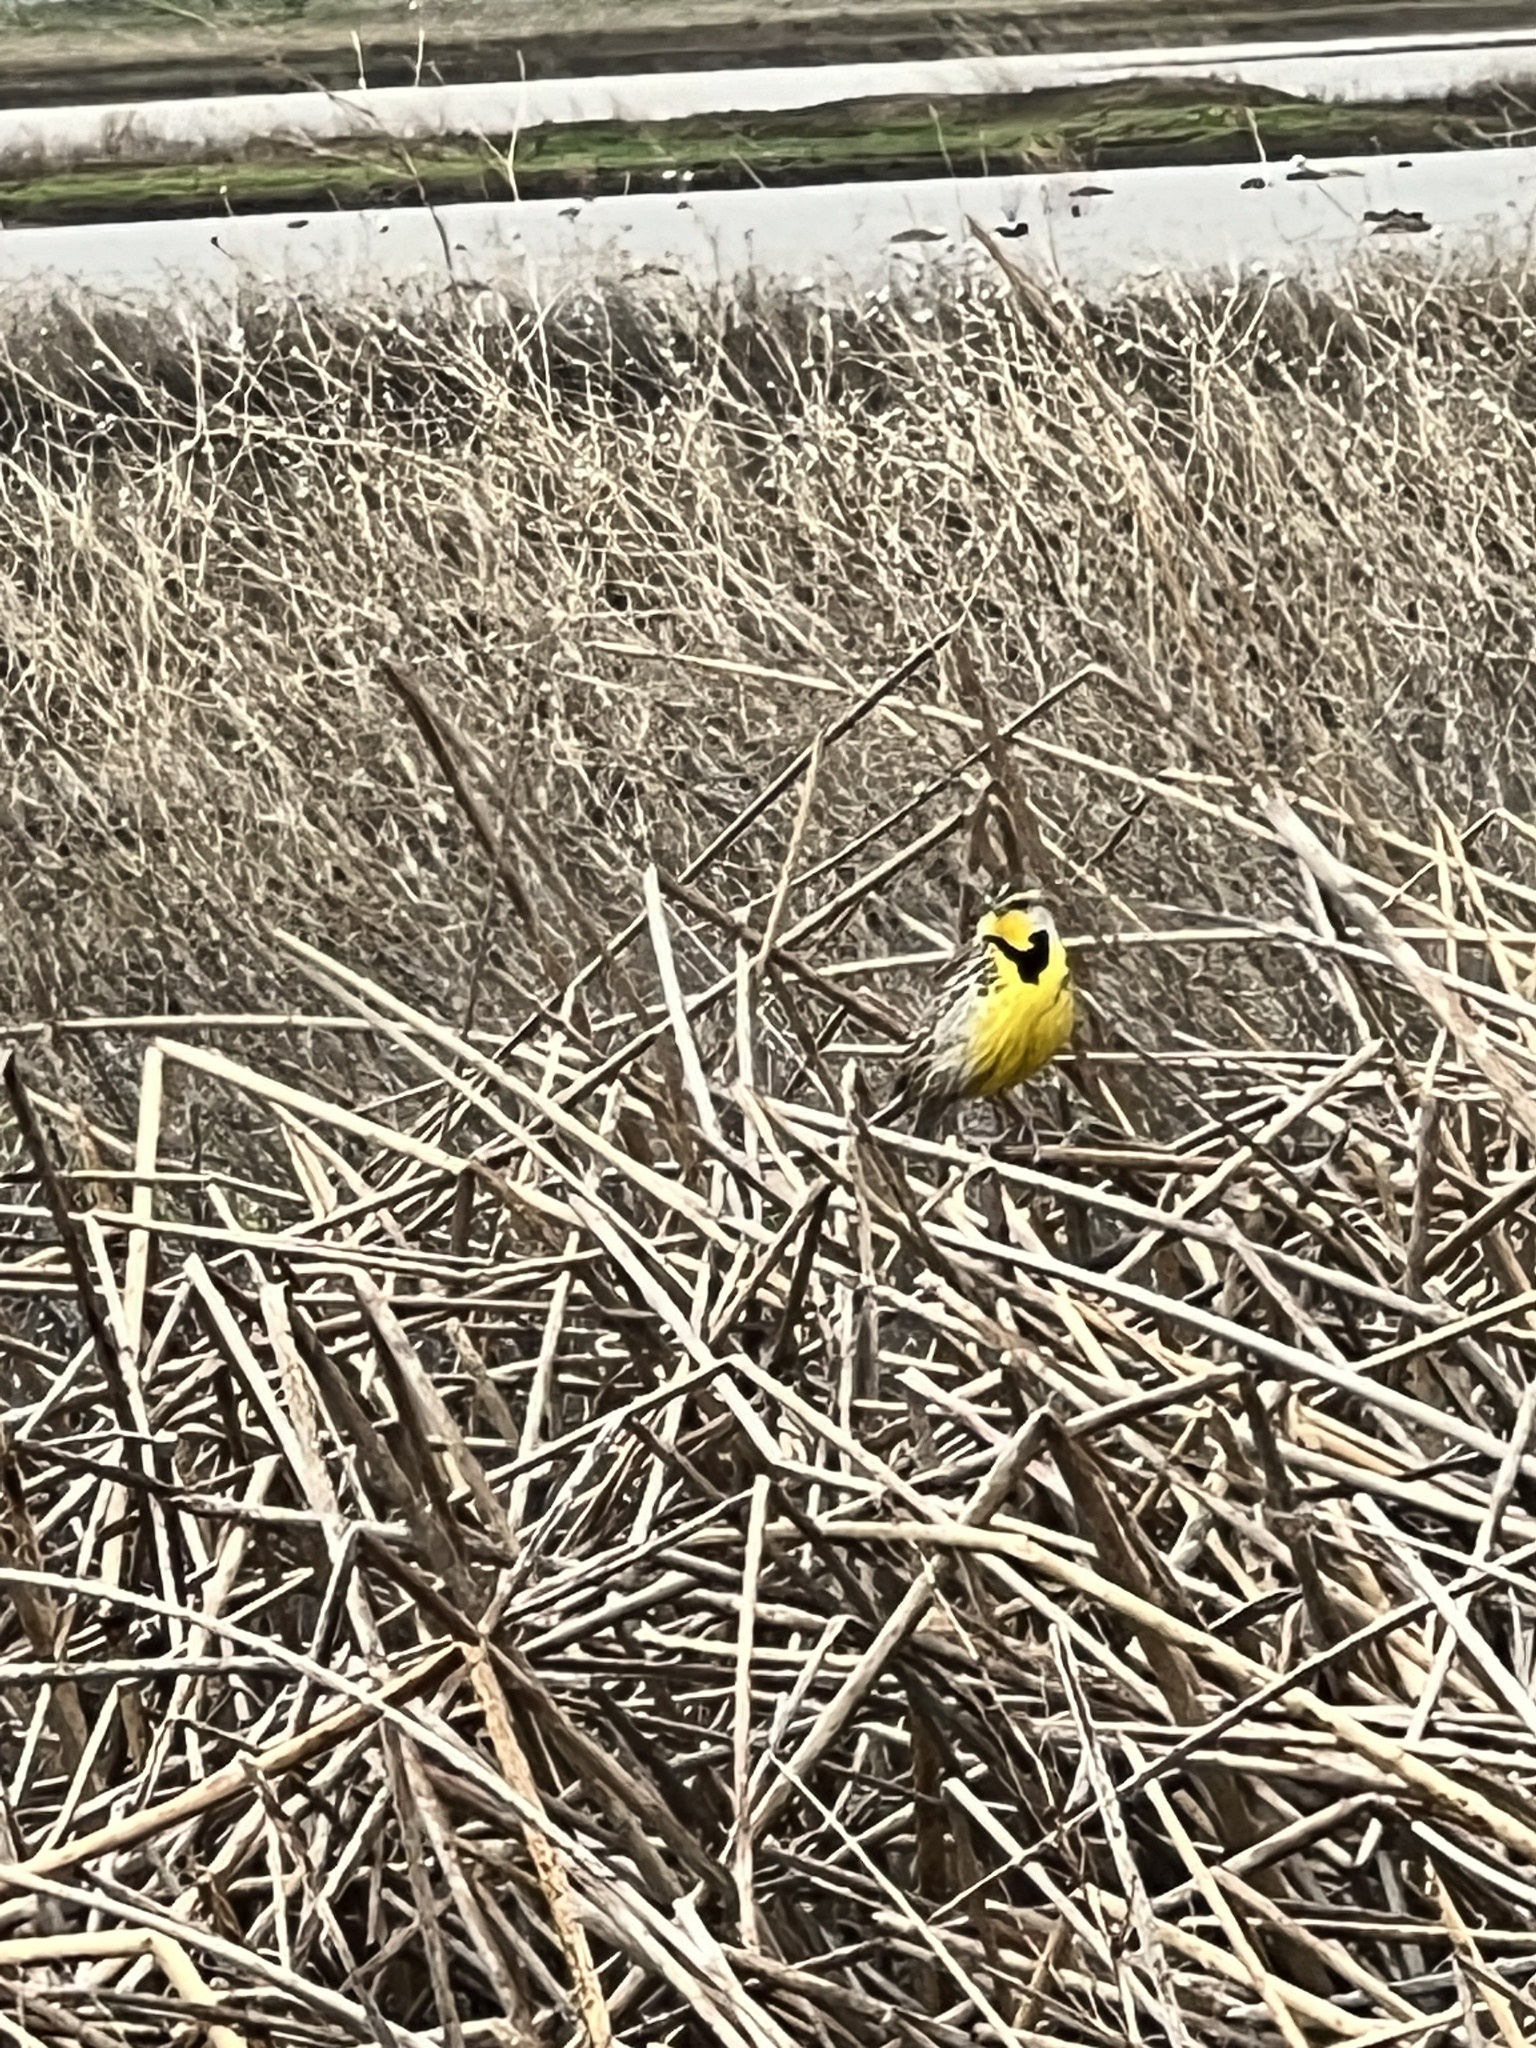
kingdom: Animalia
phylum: Chordata
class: Aves
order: Passeriformes
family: Icteridae
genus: Sturnella
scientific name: Sturnella neglecta
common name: Western meadowlark
